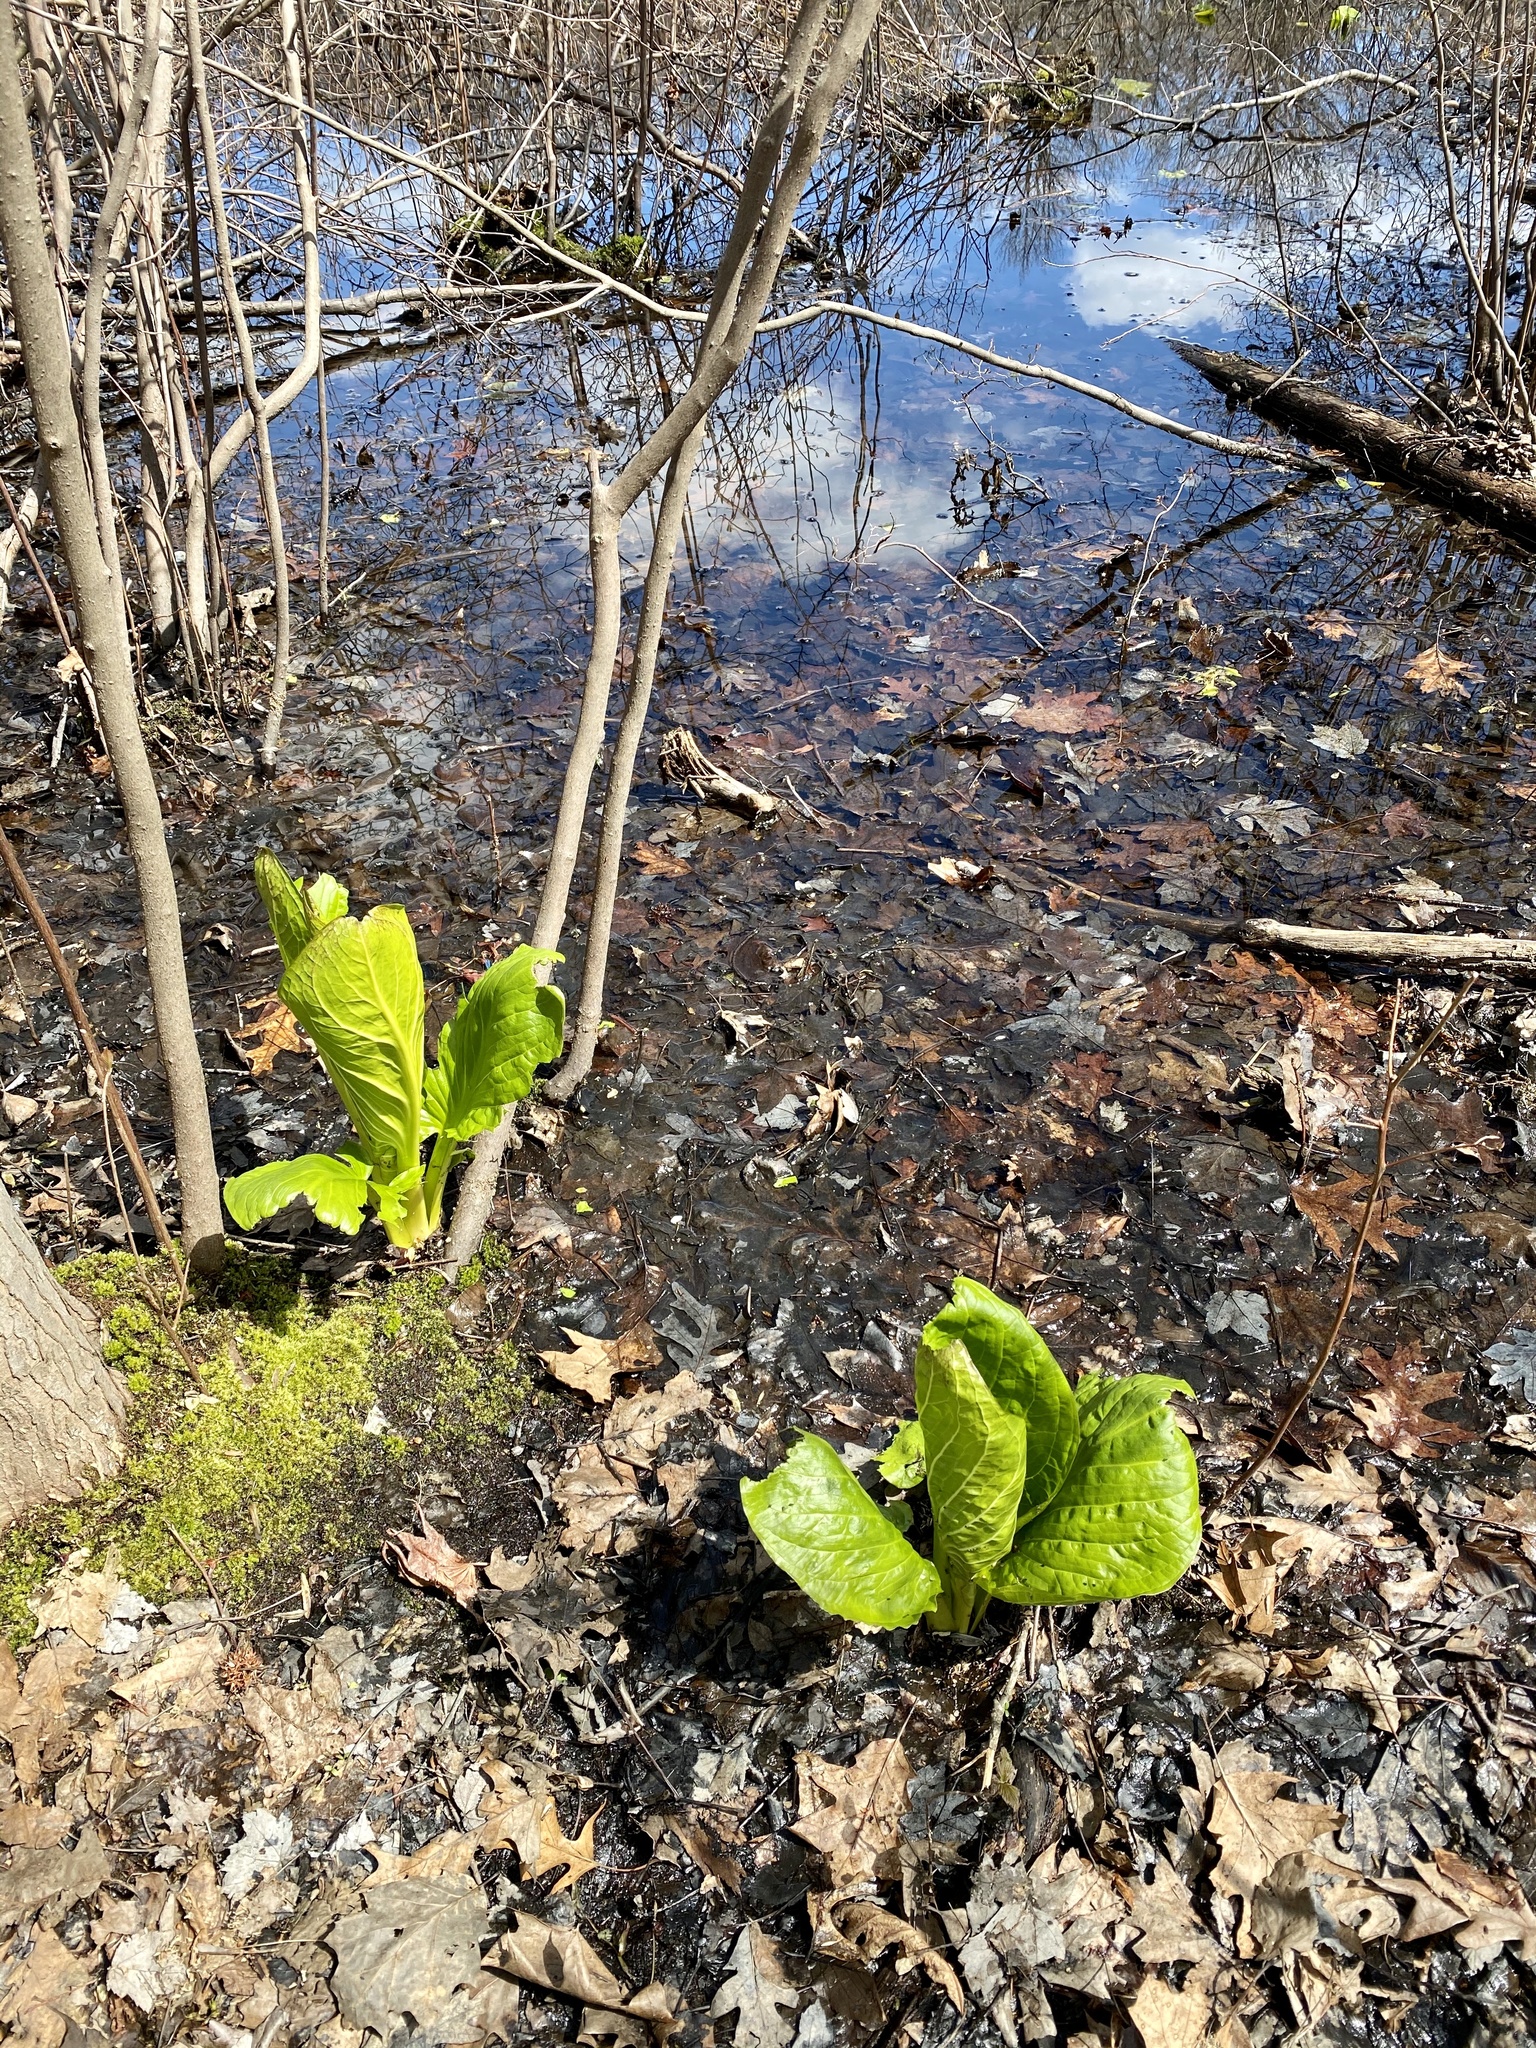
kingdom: Plantae
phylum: Tracheophyta
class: Liliopsida
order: Alismatales
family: Araceae
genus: Symplocarpus
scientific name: Symplocarpus foetidus
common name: Eastern skunk cabbage
